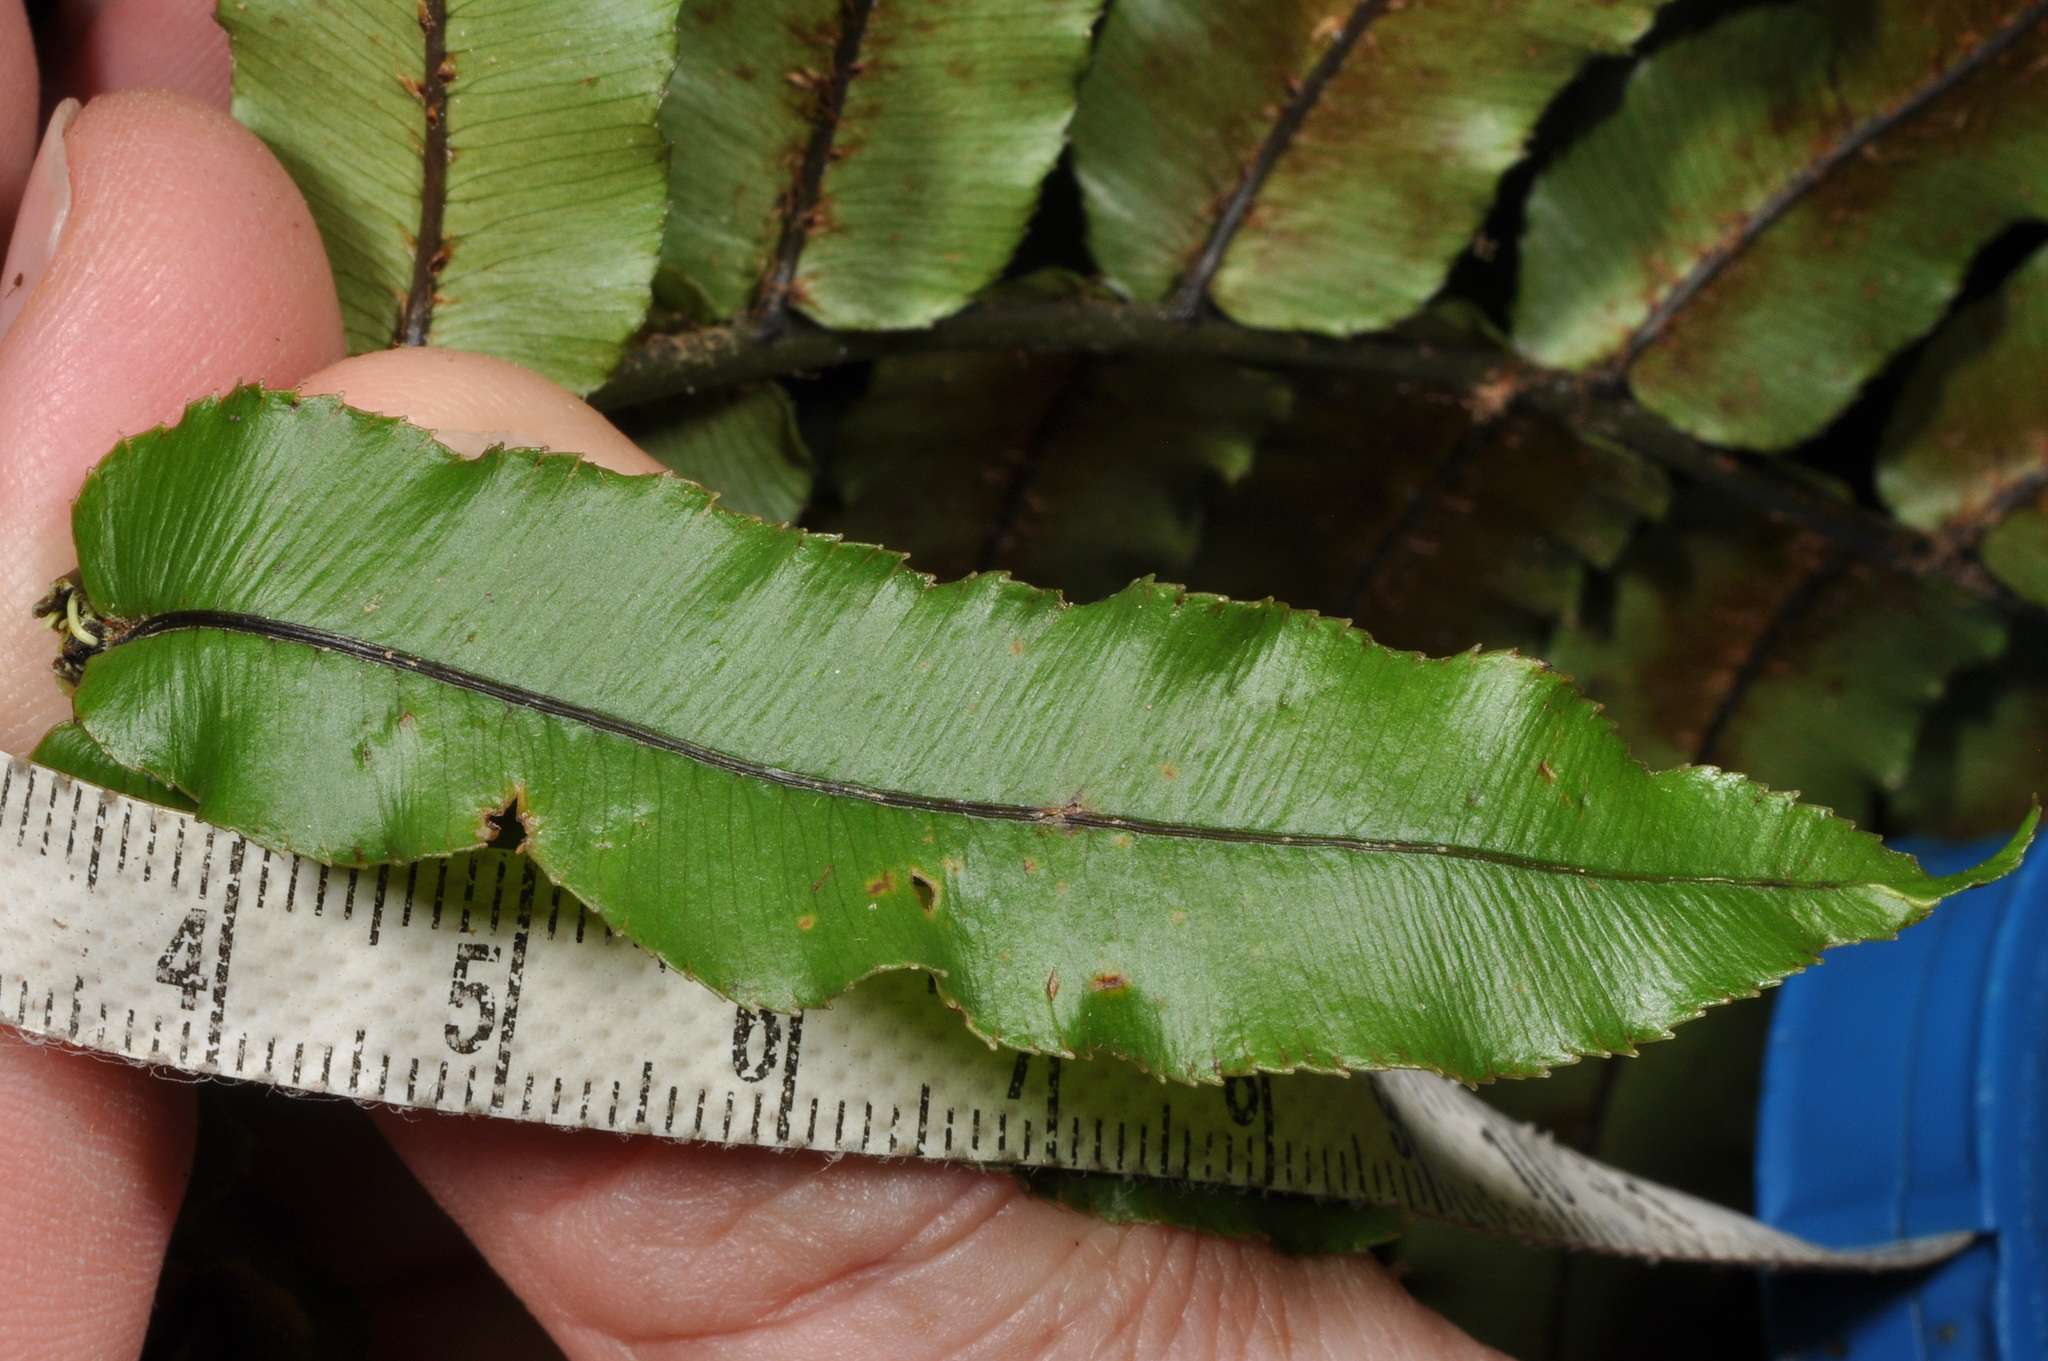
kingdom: Plantae
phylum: Tracheophyta
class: Polypodiopsida
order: Polypodiales
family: Blechnaceae
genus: Parablechnum
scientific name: Parablechnum montanum
